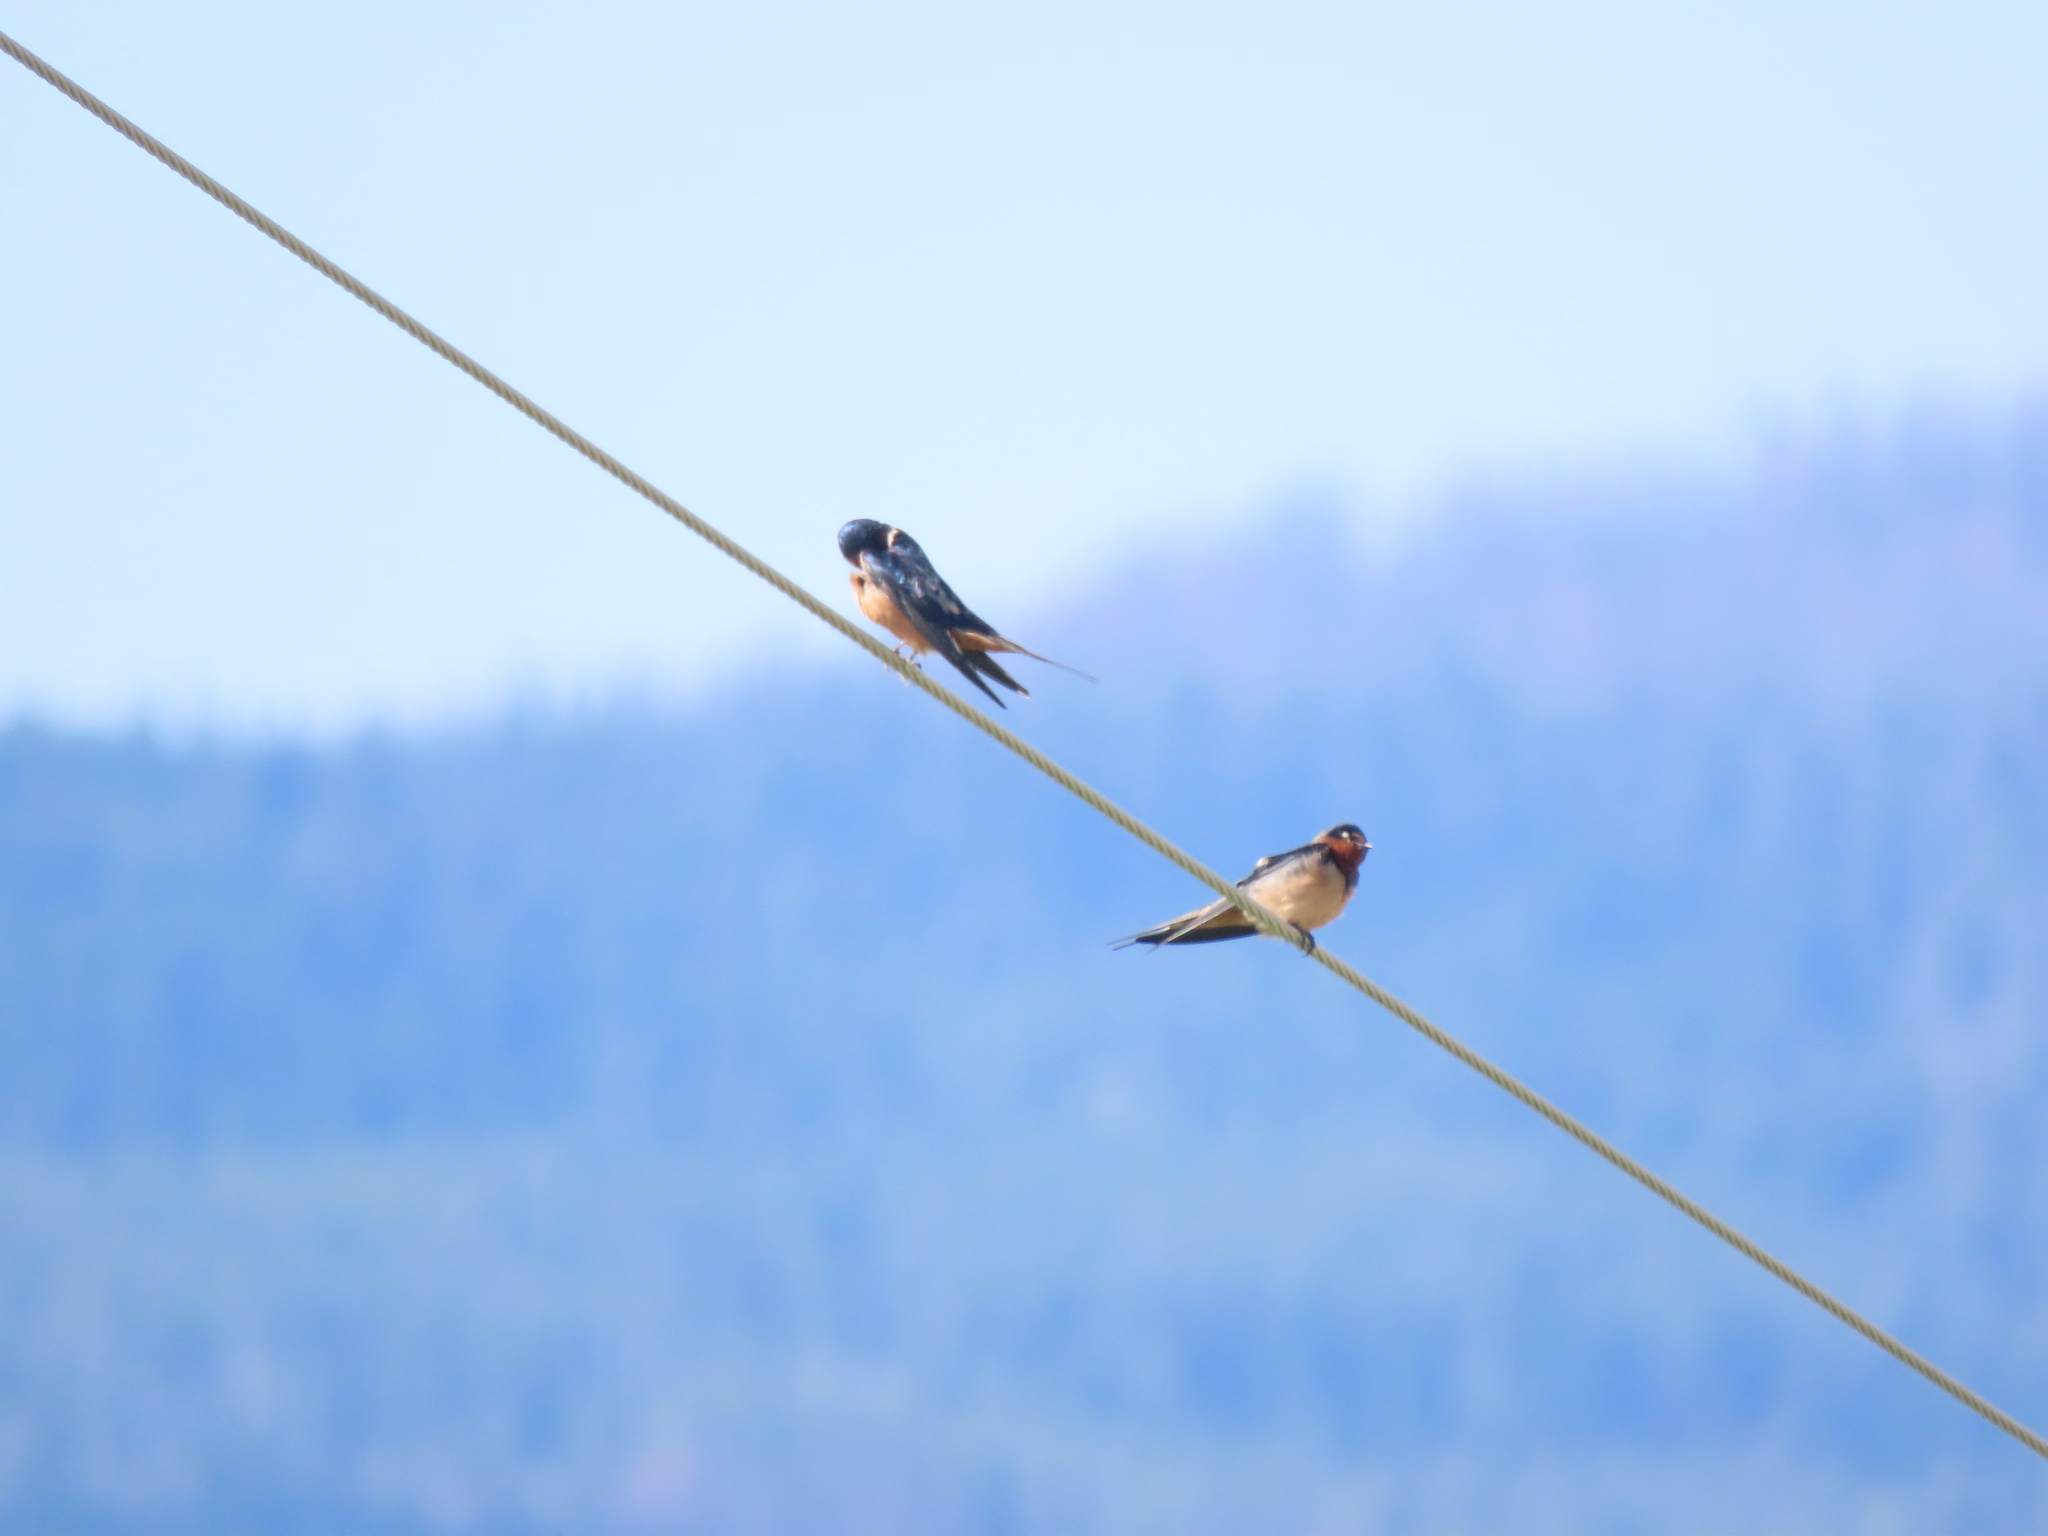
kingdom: Animalia
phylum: Chordata
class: Aves
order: Passeriformes
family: Hirundinidae
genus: Hirundo
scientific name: Hirundo rustica
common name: Barn swallow
